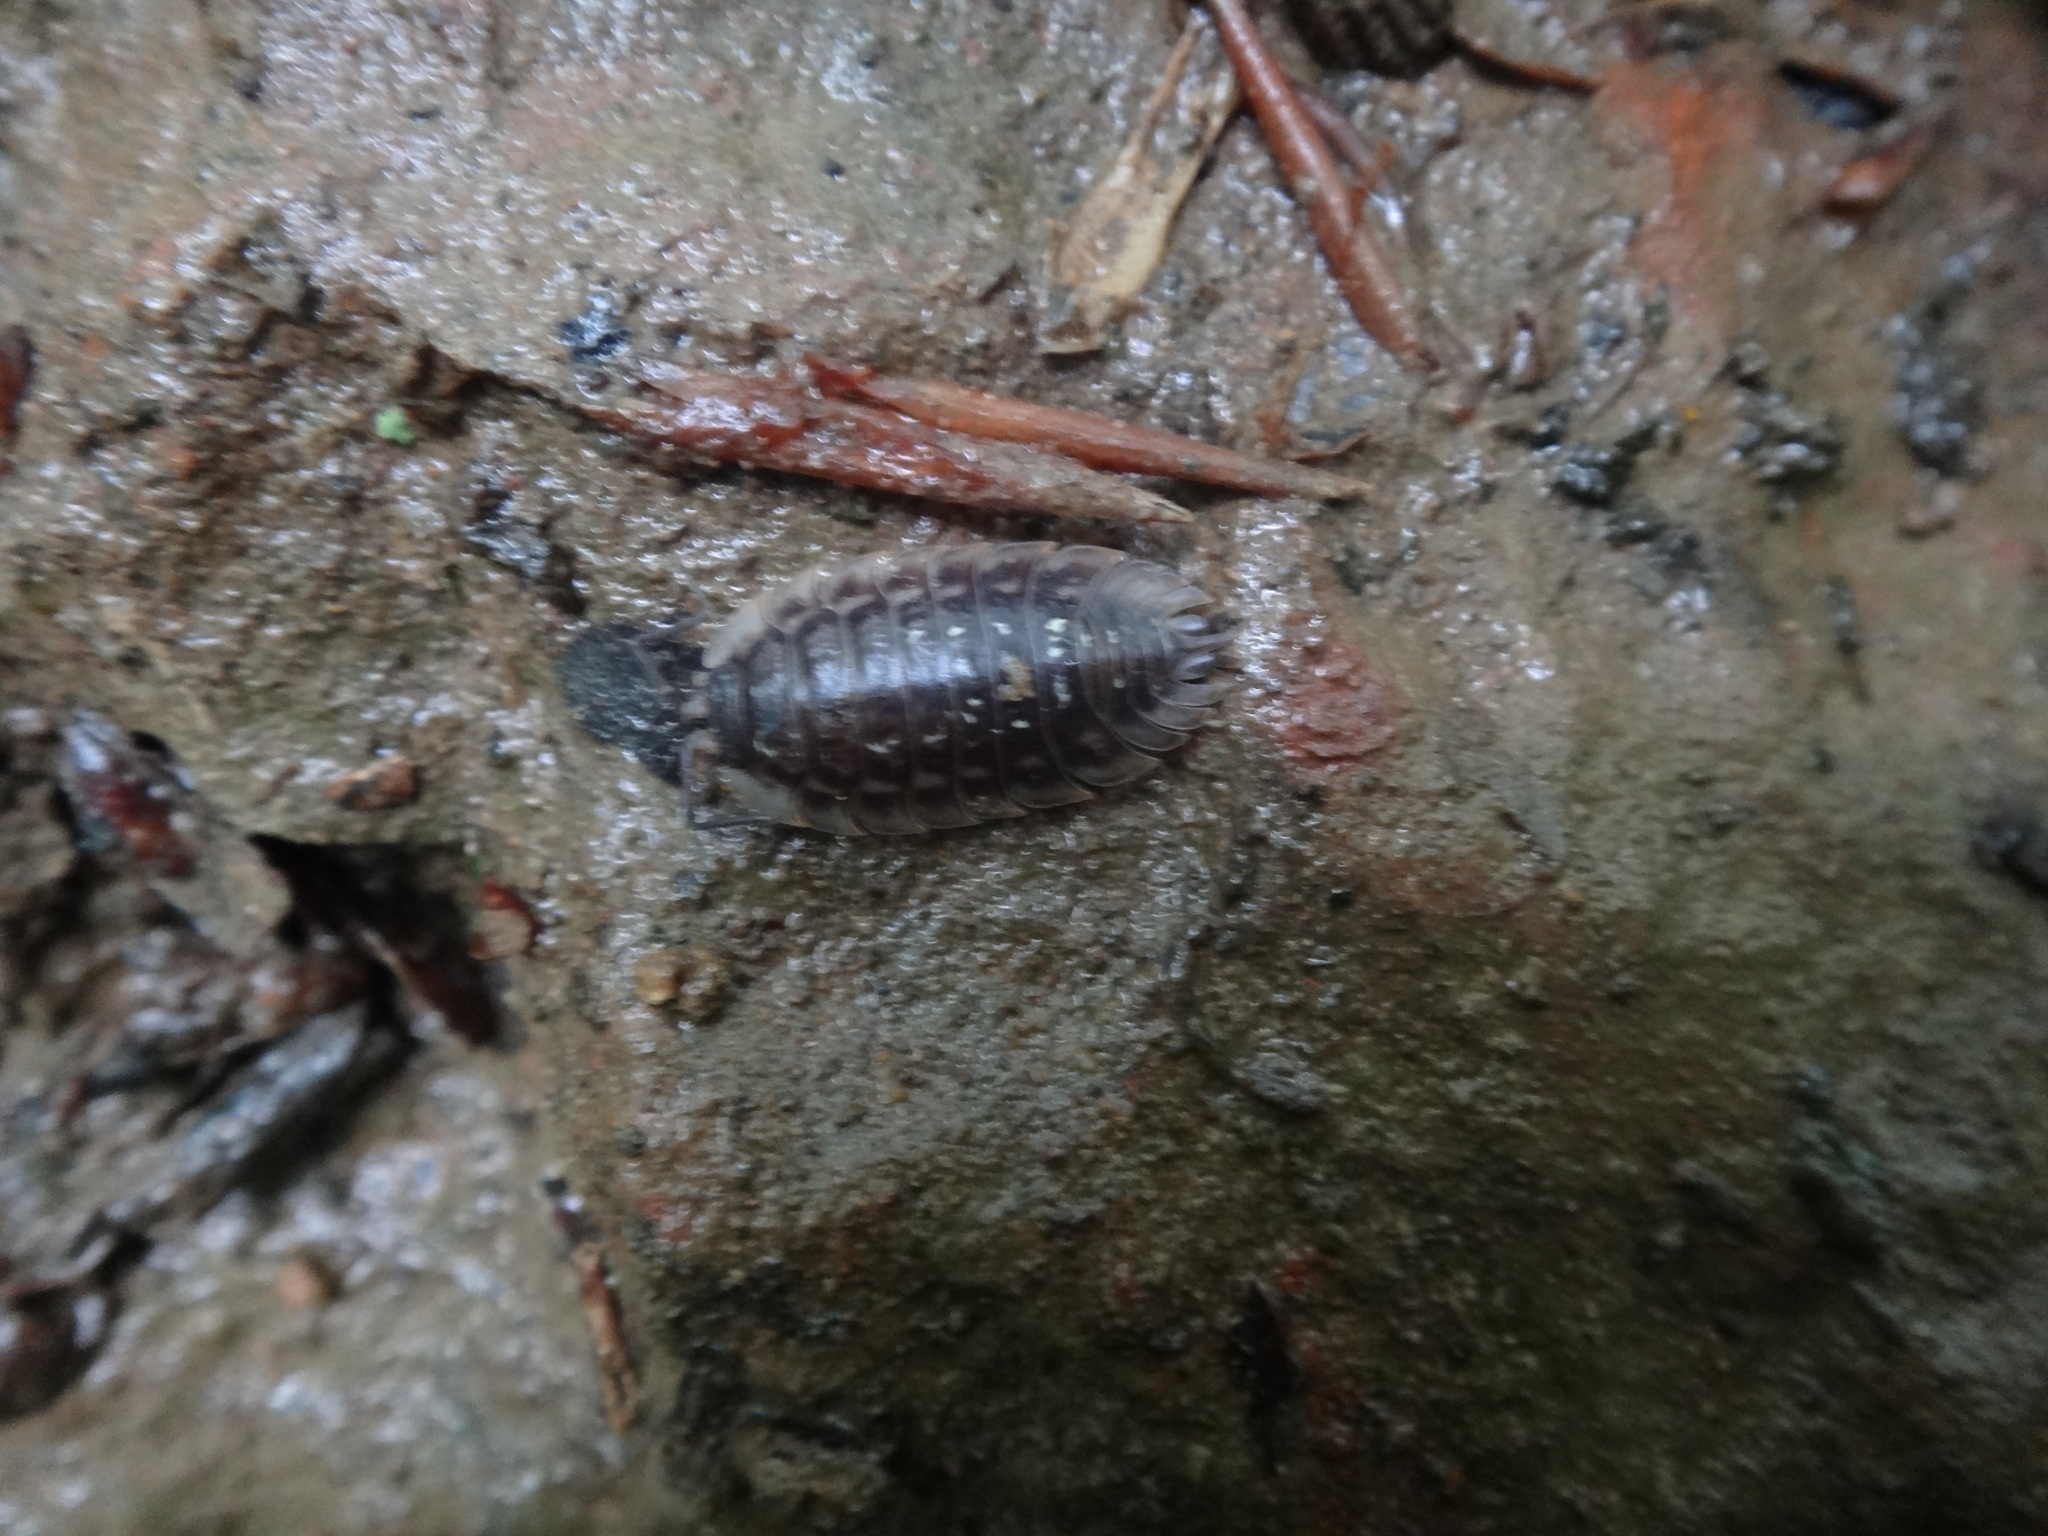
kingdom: Animalia
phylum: Arthropoda
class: Malacostraca
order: Isopoda
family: Oniscidae
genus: Oniscus
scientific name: Oniscus asellus
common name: Common shiny woodlouse
